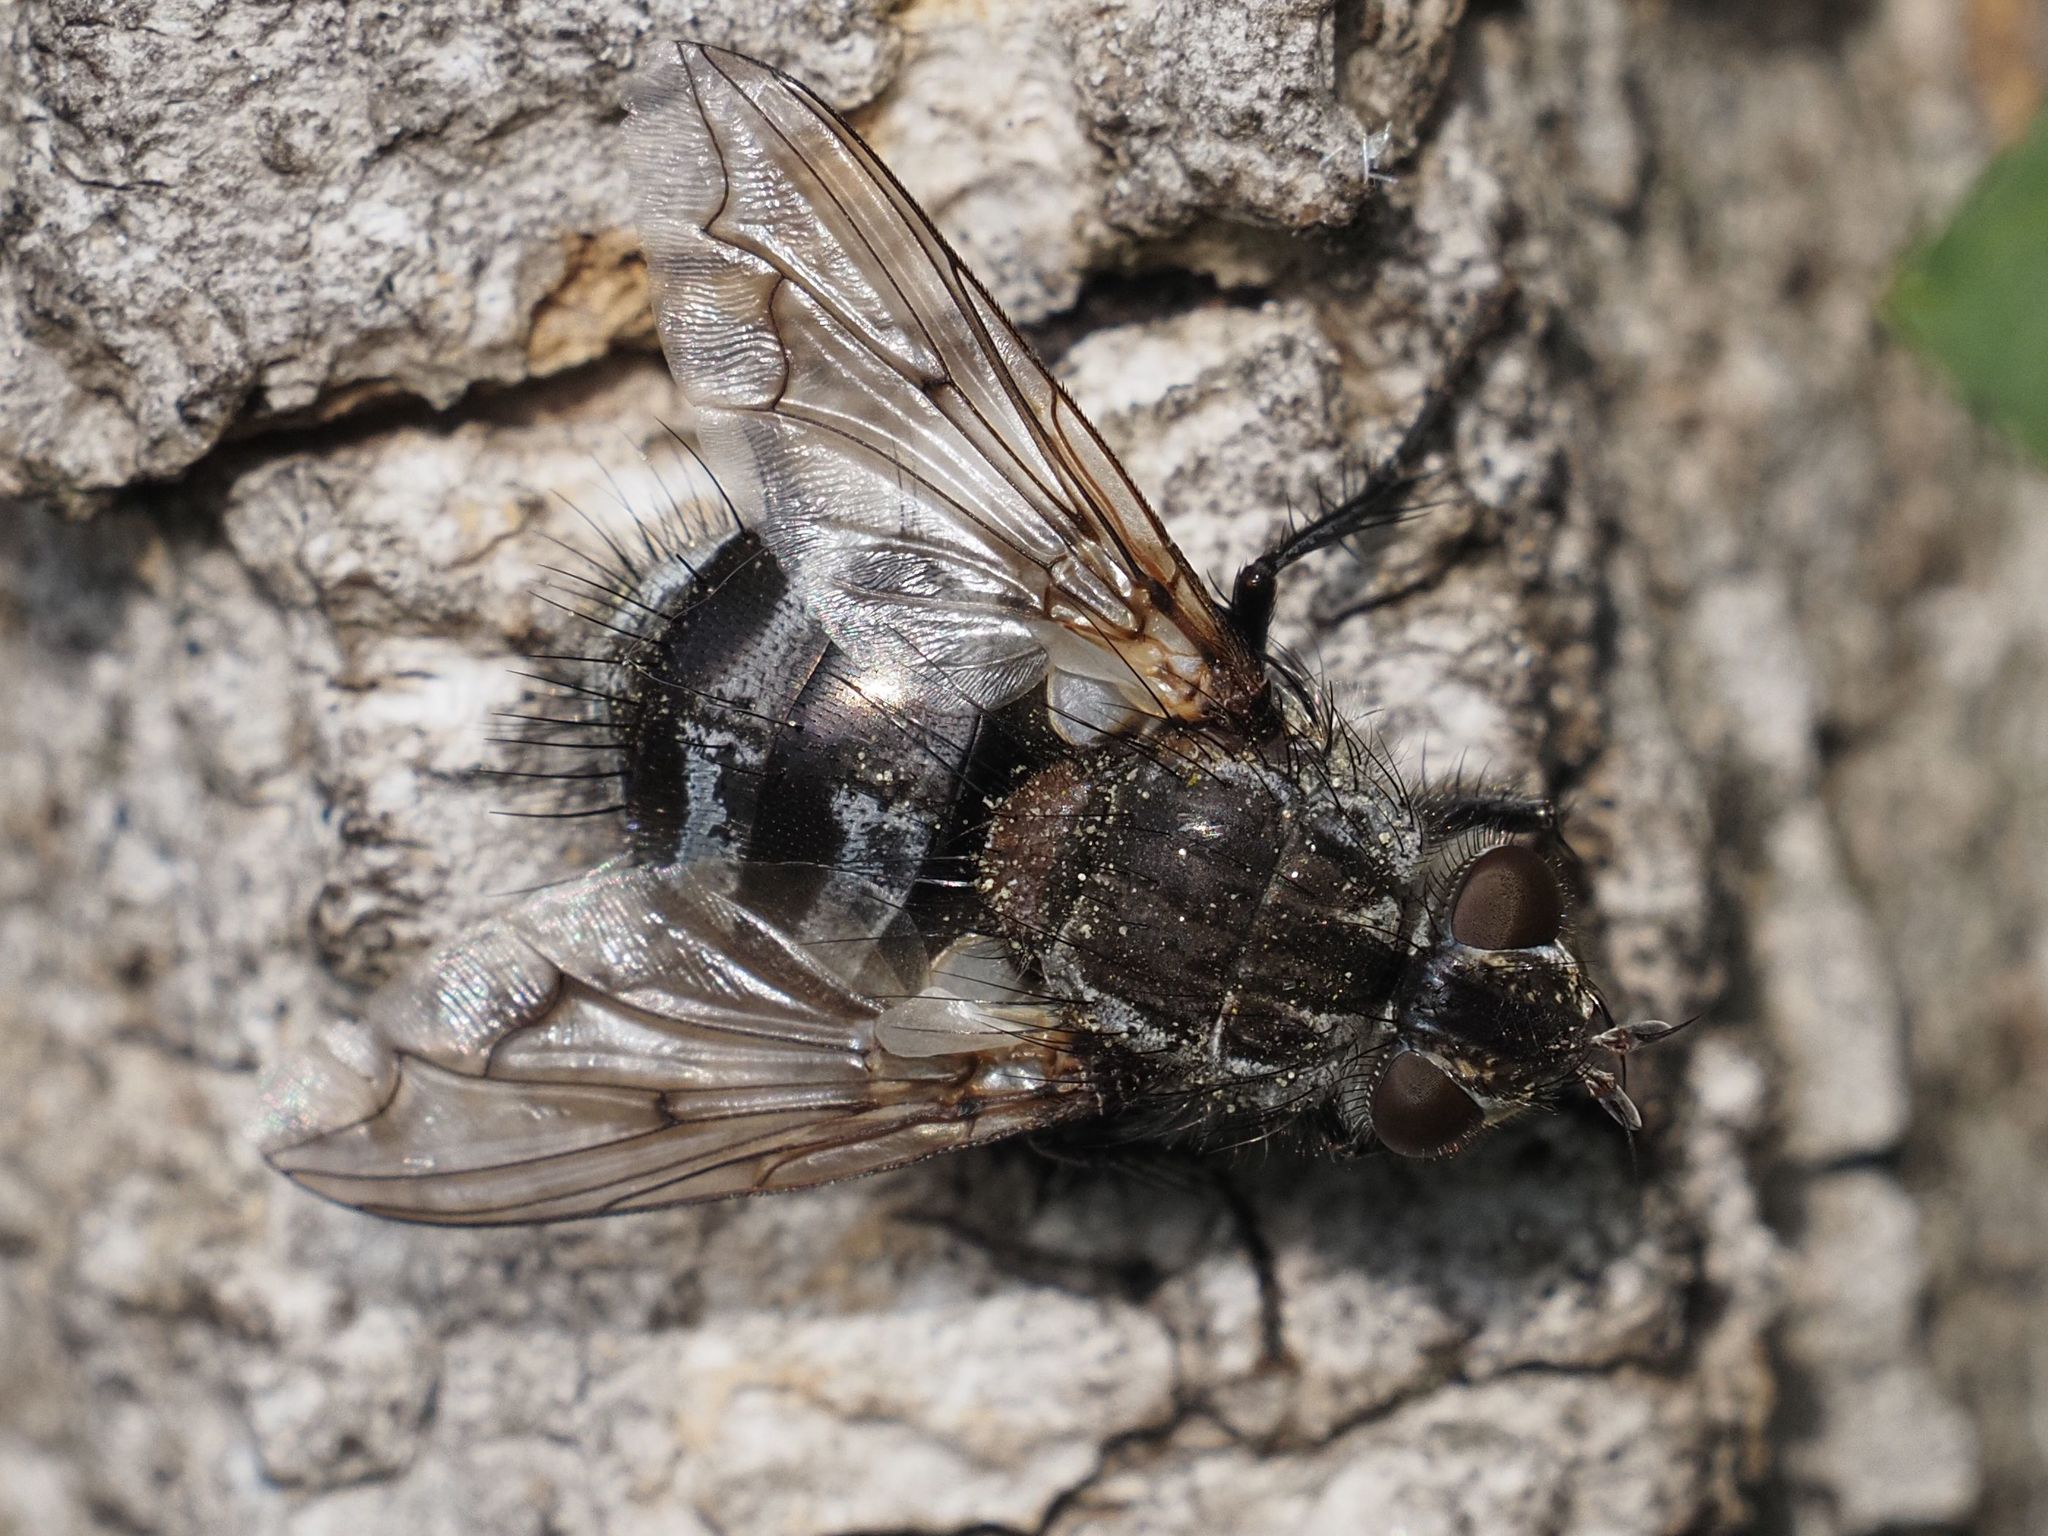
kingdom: Animalia
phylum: Arthropoda
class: Insecta
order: Diptera
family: Tachinidae
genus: Panzeria
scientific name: Panzeria puparum
